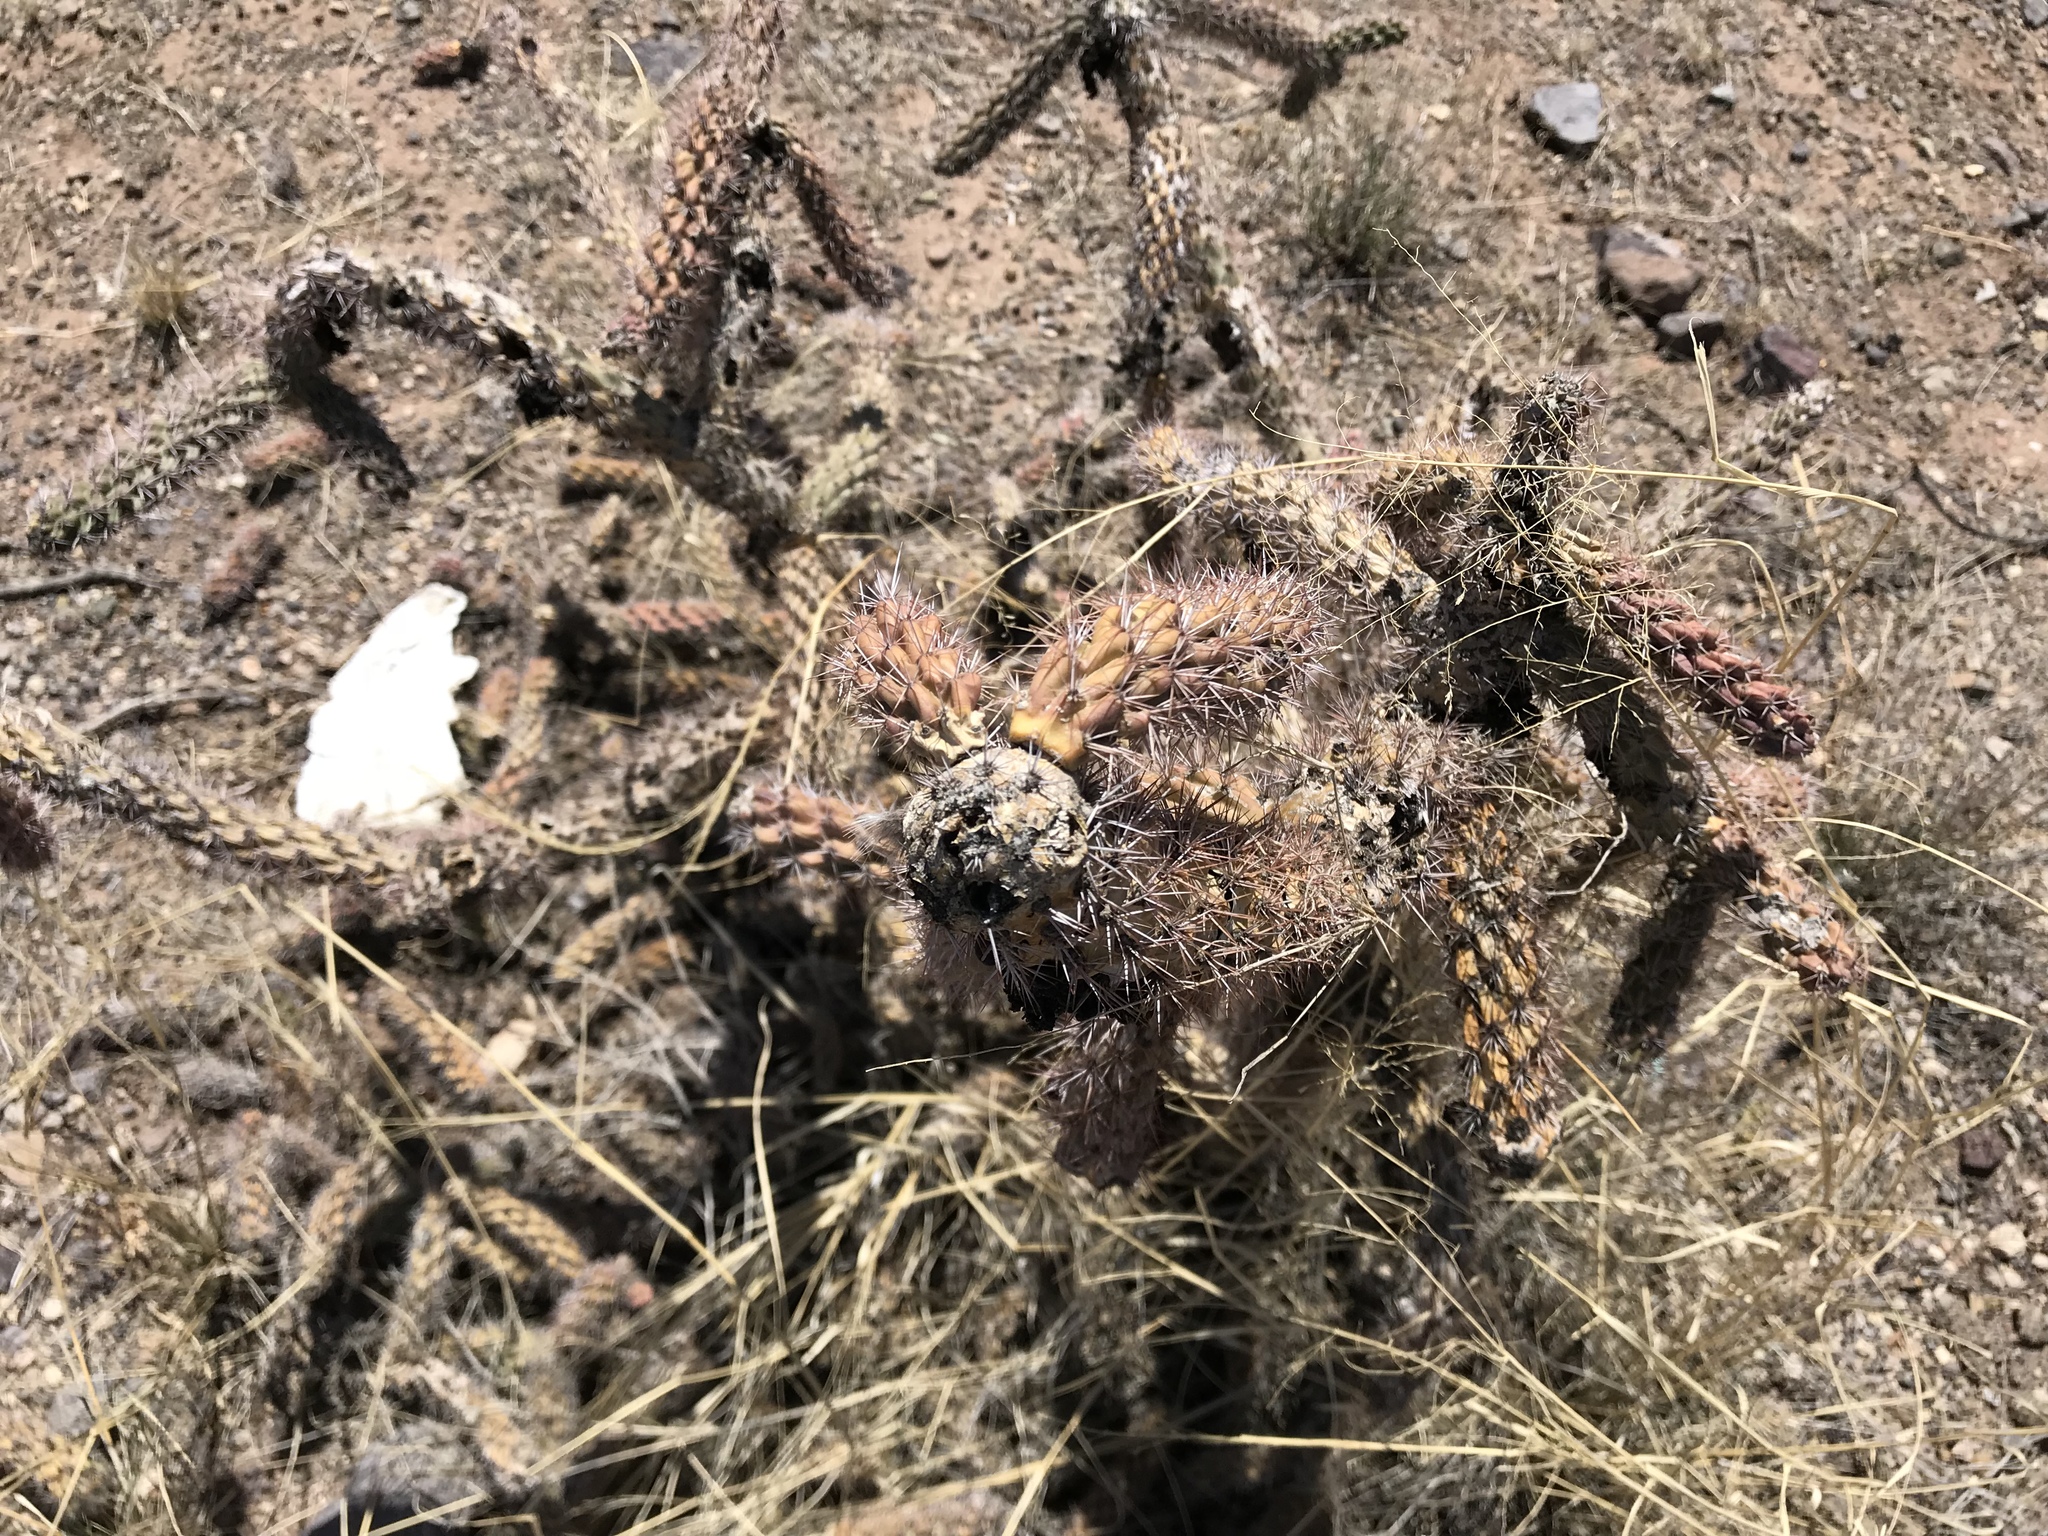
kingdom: Plantae
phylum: Tracheophyta
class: Magnoliopsida
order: Caryophyllales
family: Cactaceae
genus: Cylindropuntia
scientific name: Cylindropuntia imbricata
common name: Candelabrum cactus
